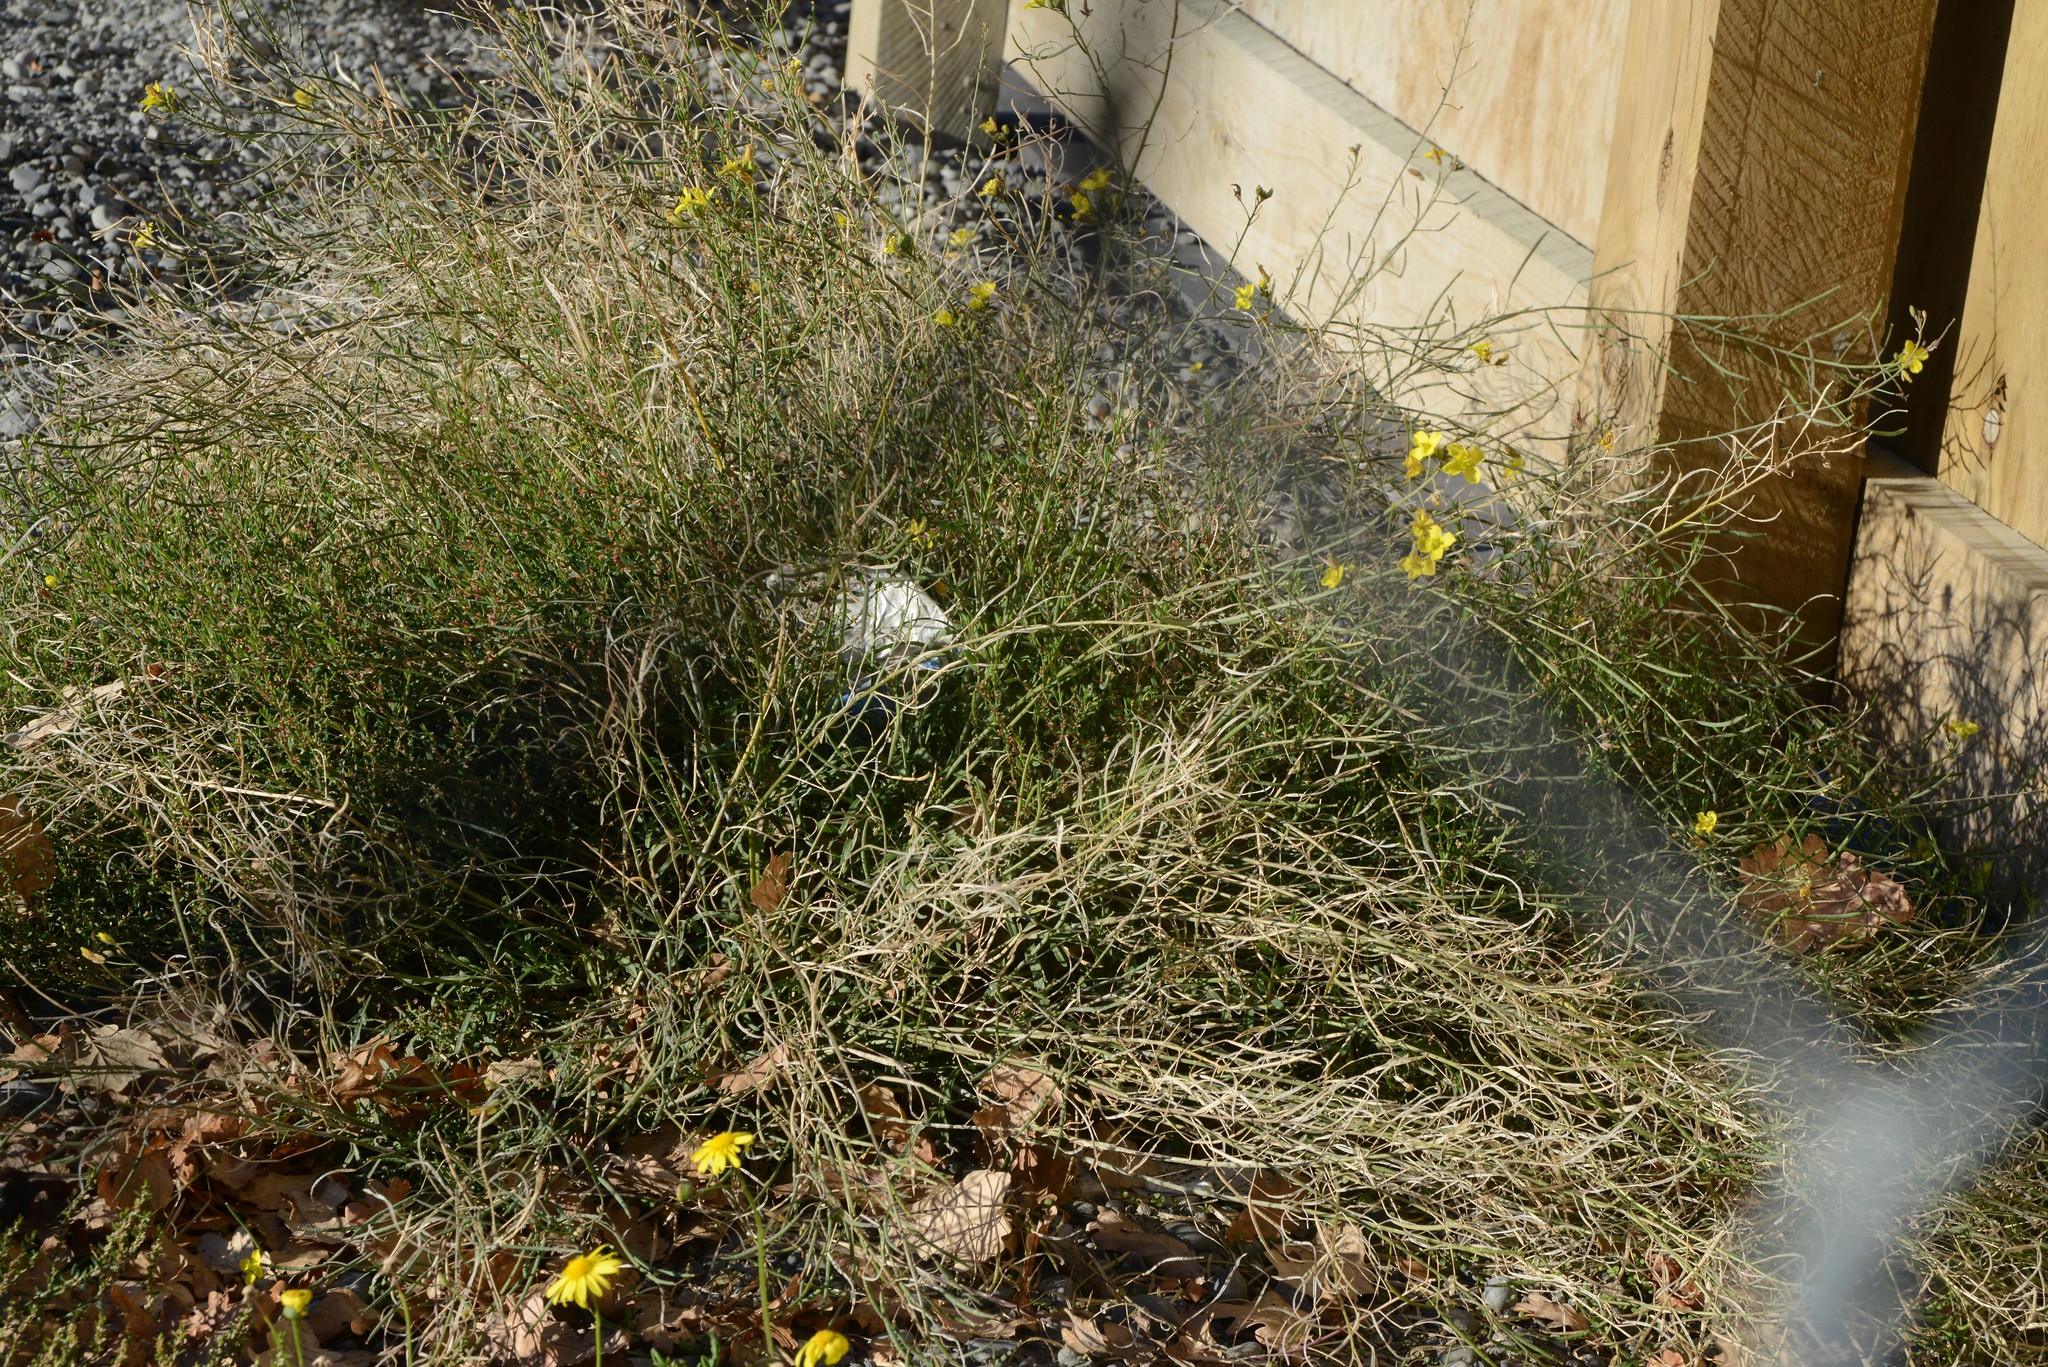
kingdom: Plantae
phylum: Tracheophyta
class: Magnoliopsida
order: Brassicales
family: Brassicaceae
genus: Sisymbrium
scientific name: Sisymbrium orientale
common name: Eastern rocket
